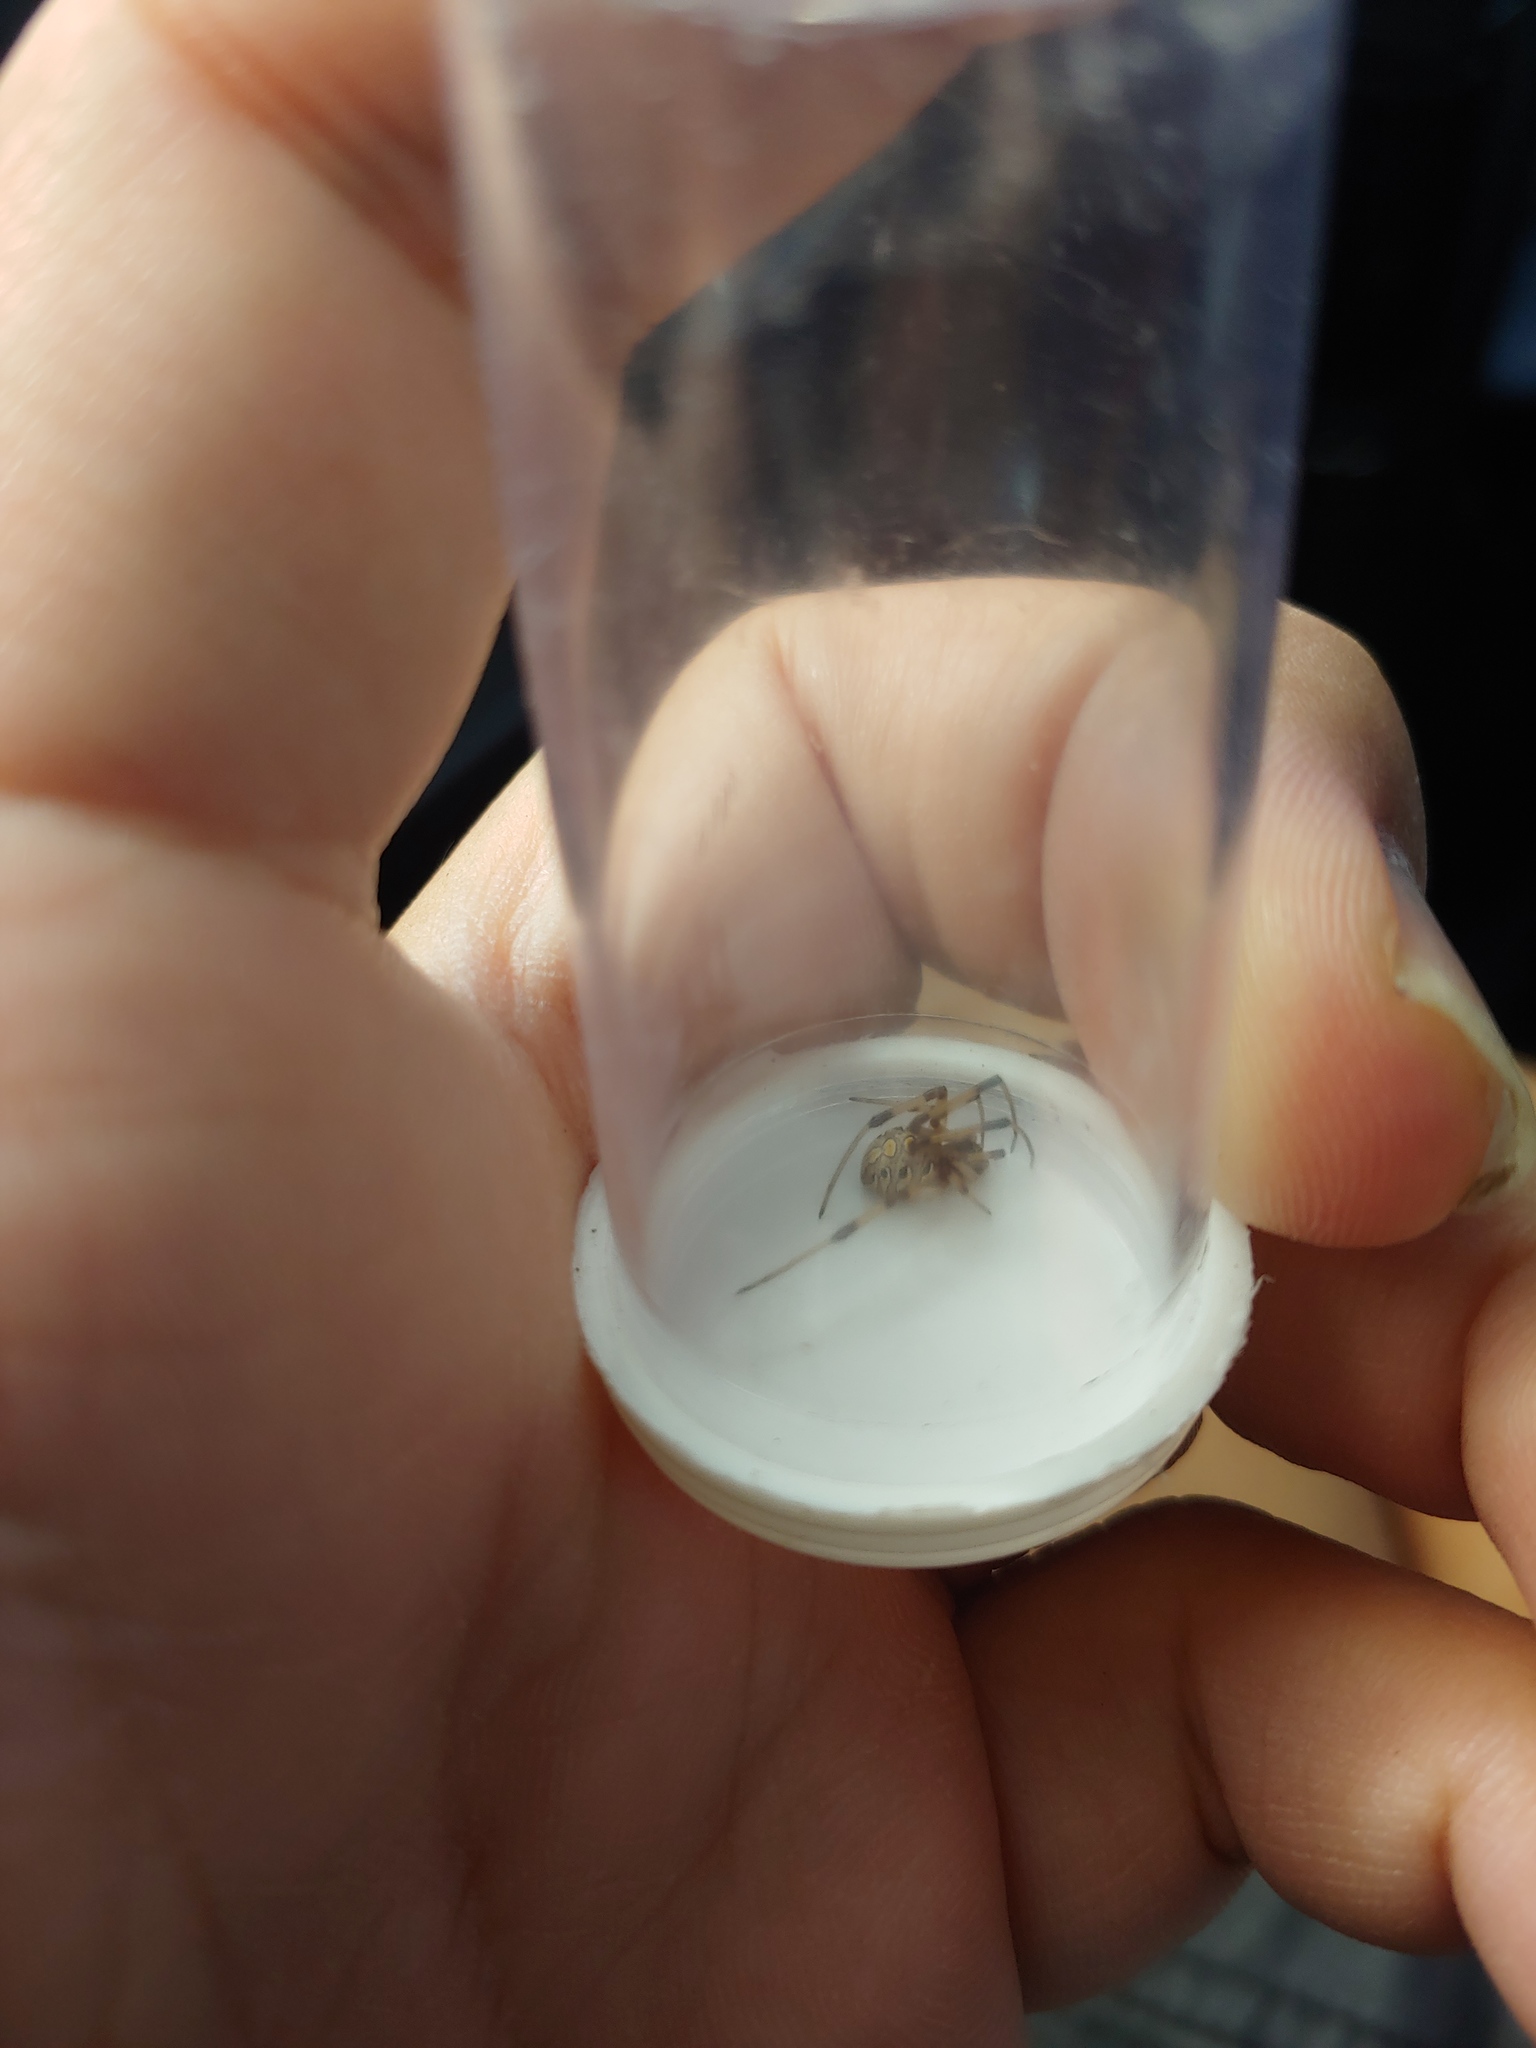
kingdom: Animalia
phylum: Arthropoda
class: Arachnida
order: Araneae
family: Theridiidae
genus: Latrodectus
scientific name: Latrodectus geometricus
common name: Brown widow spider
